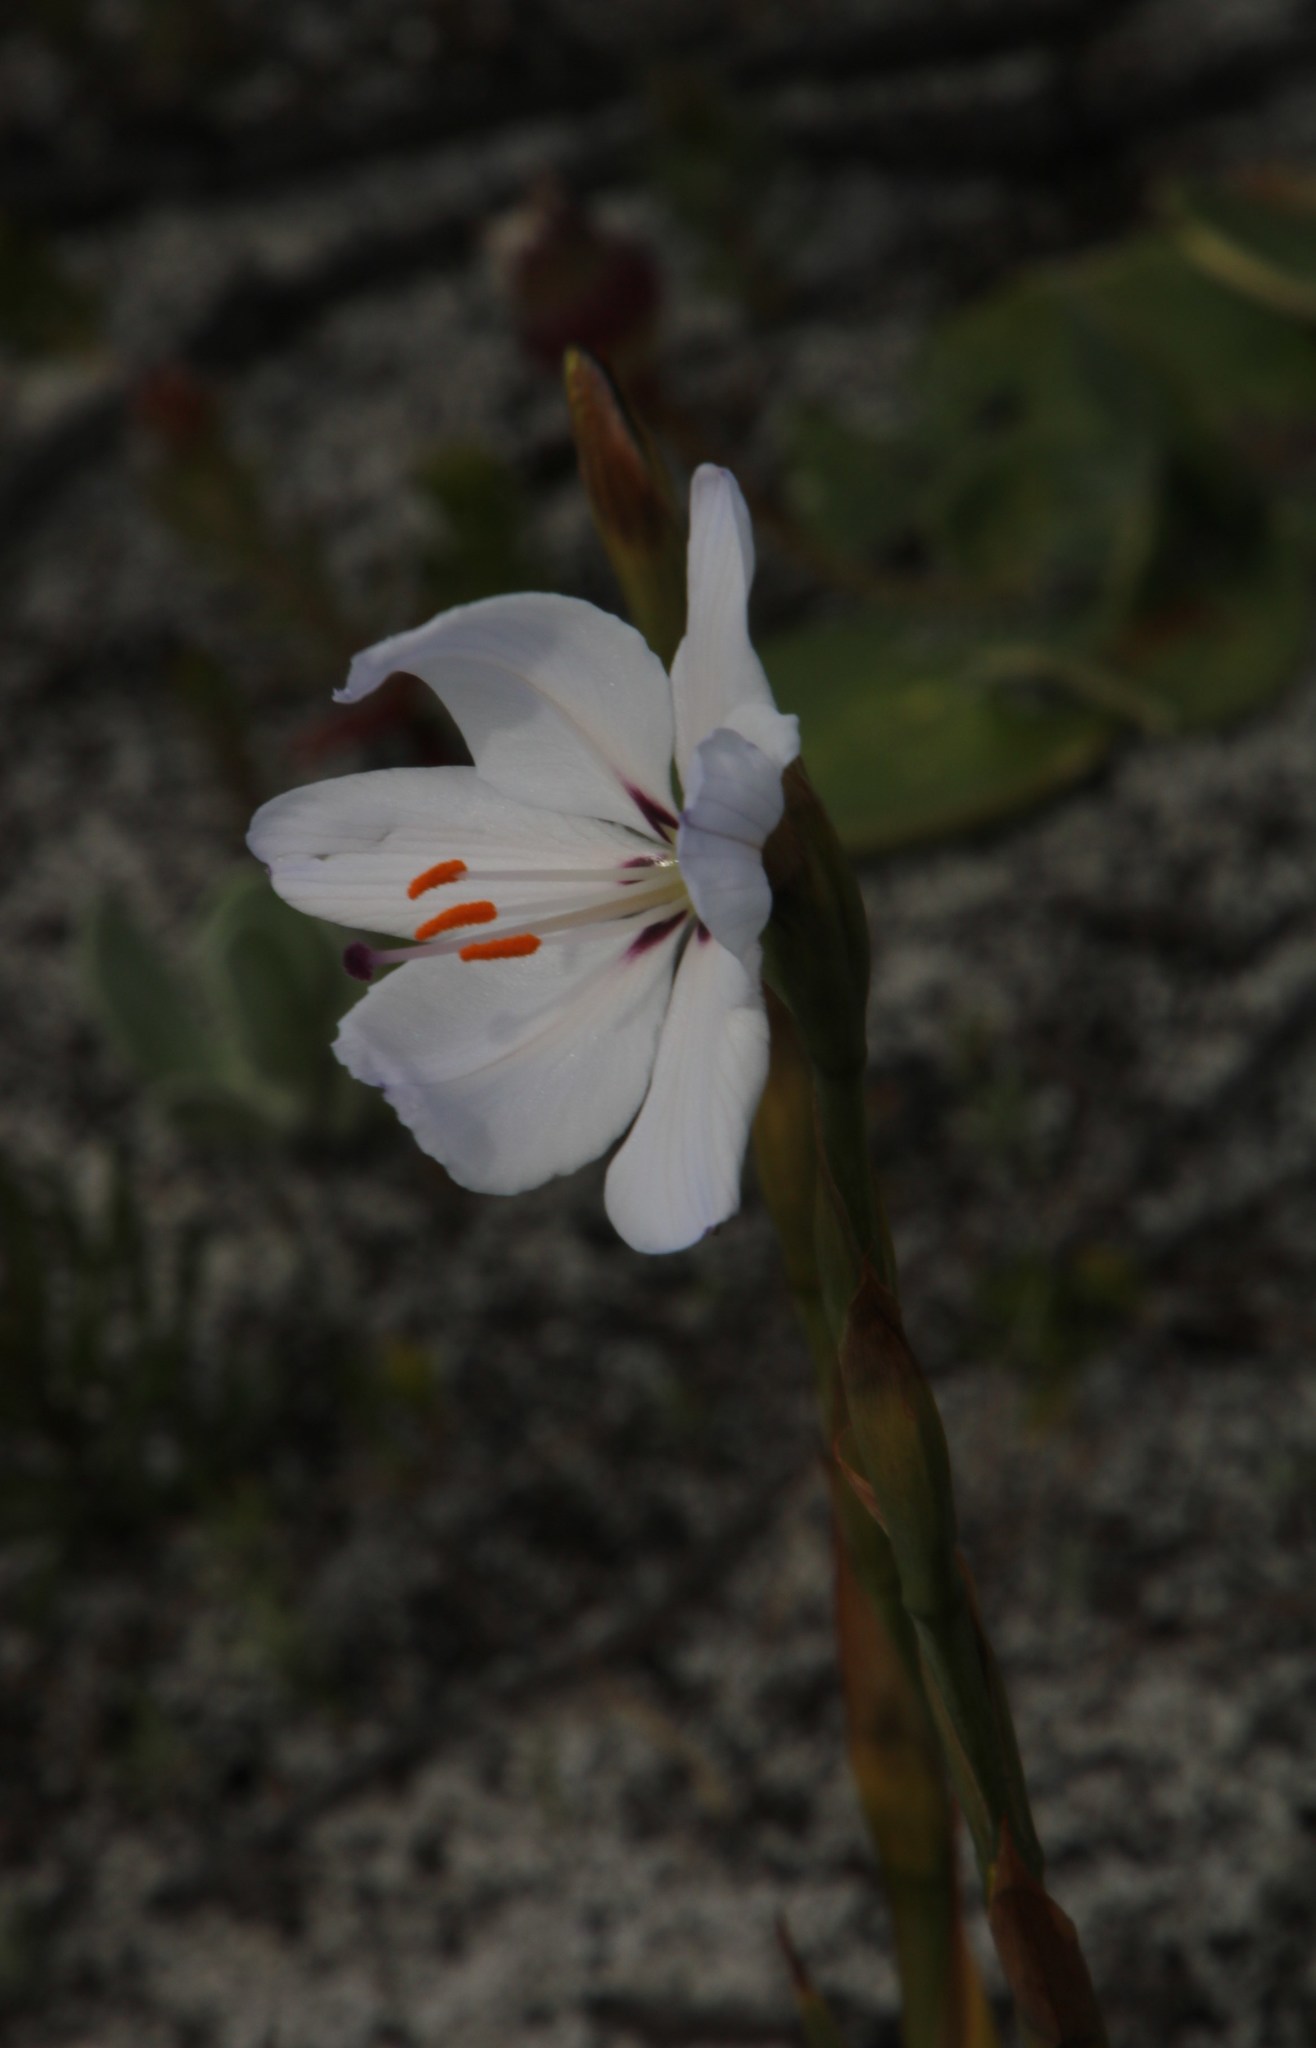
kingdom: Plantae
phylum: Tracheophyta
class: Liliopsida
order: Asparagales
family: Iridaceae
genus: Aristea
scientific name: Aristea spiralis
